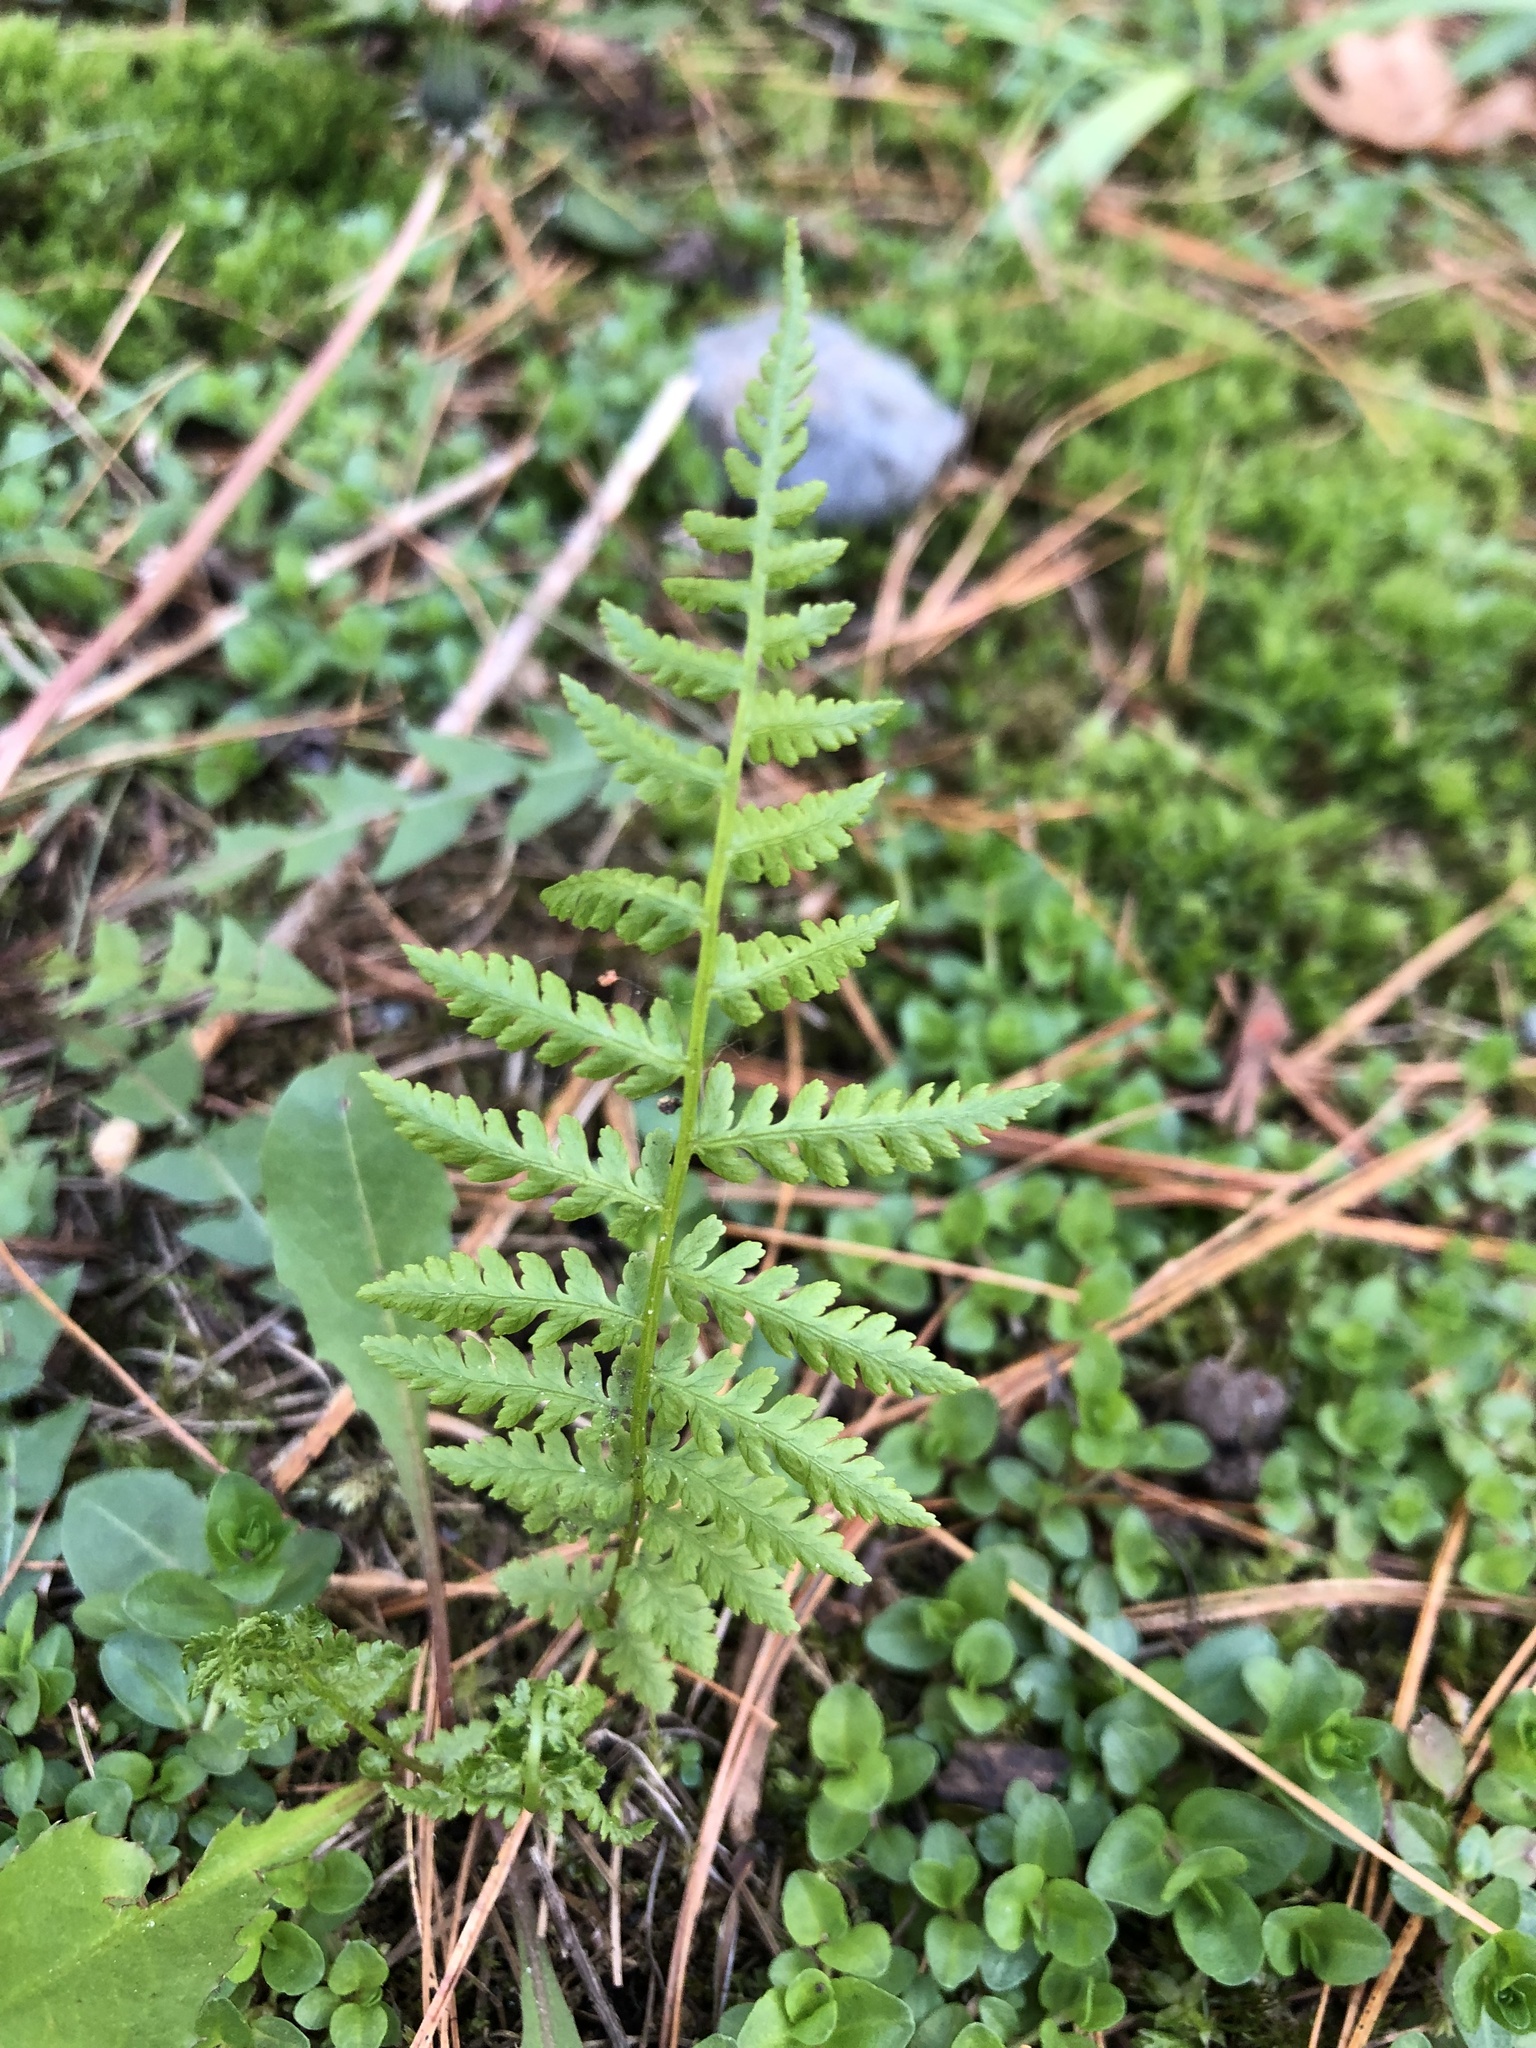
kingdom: Plantae
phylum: Tracheophyta
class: Polypodiopsida
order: Polypodiales
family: Athyriaceae
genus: Athyrium
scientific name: Athyrium angustum
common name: Northern lady fern
